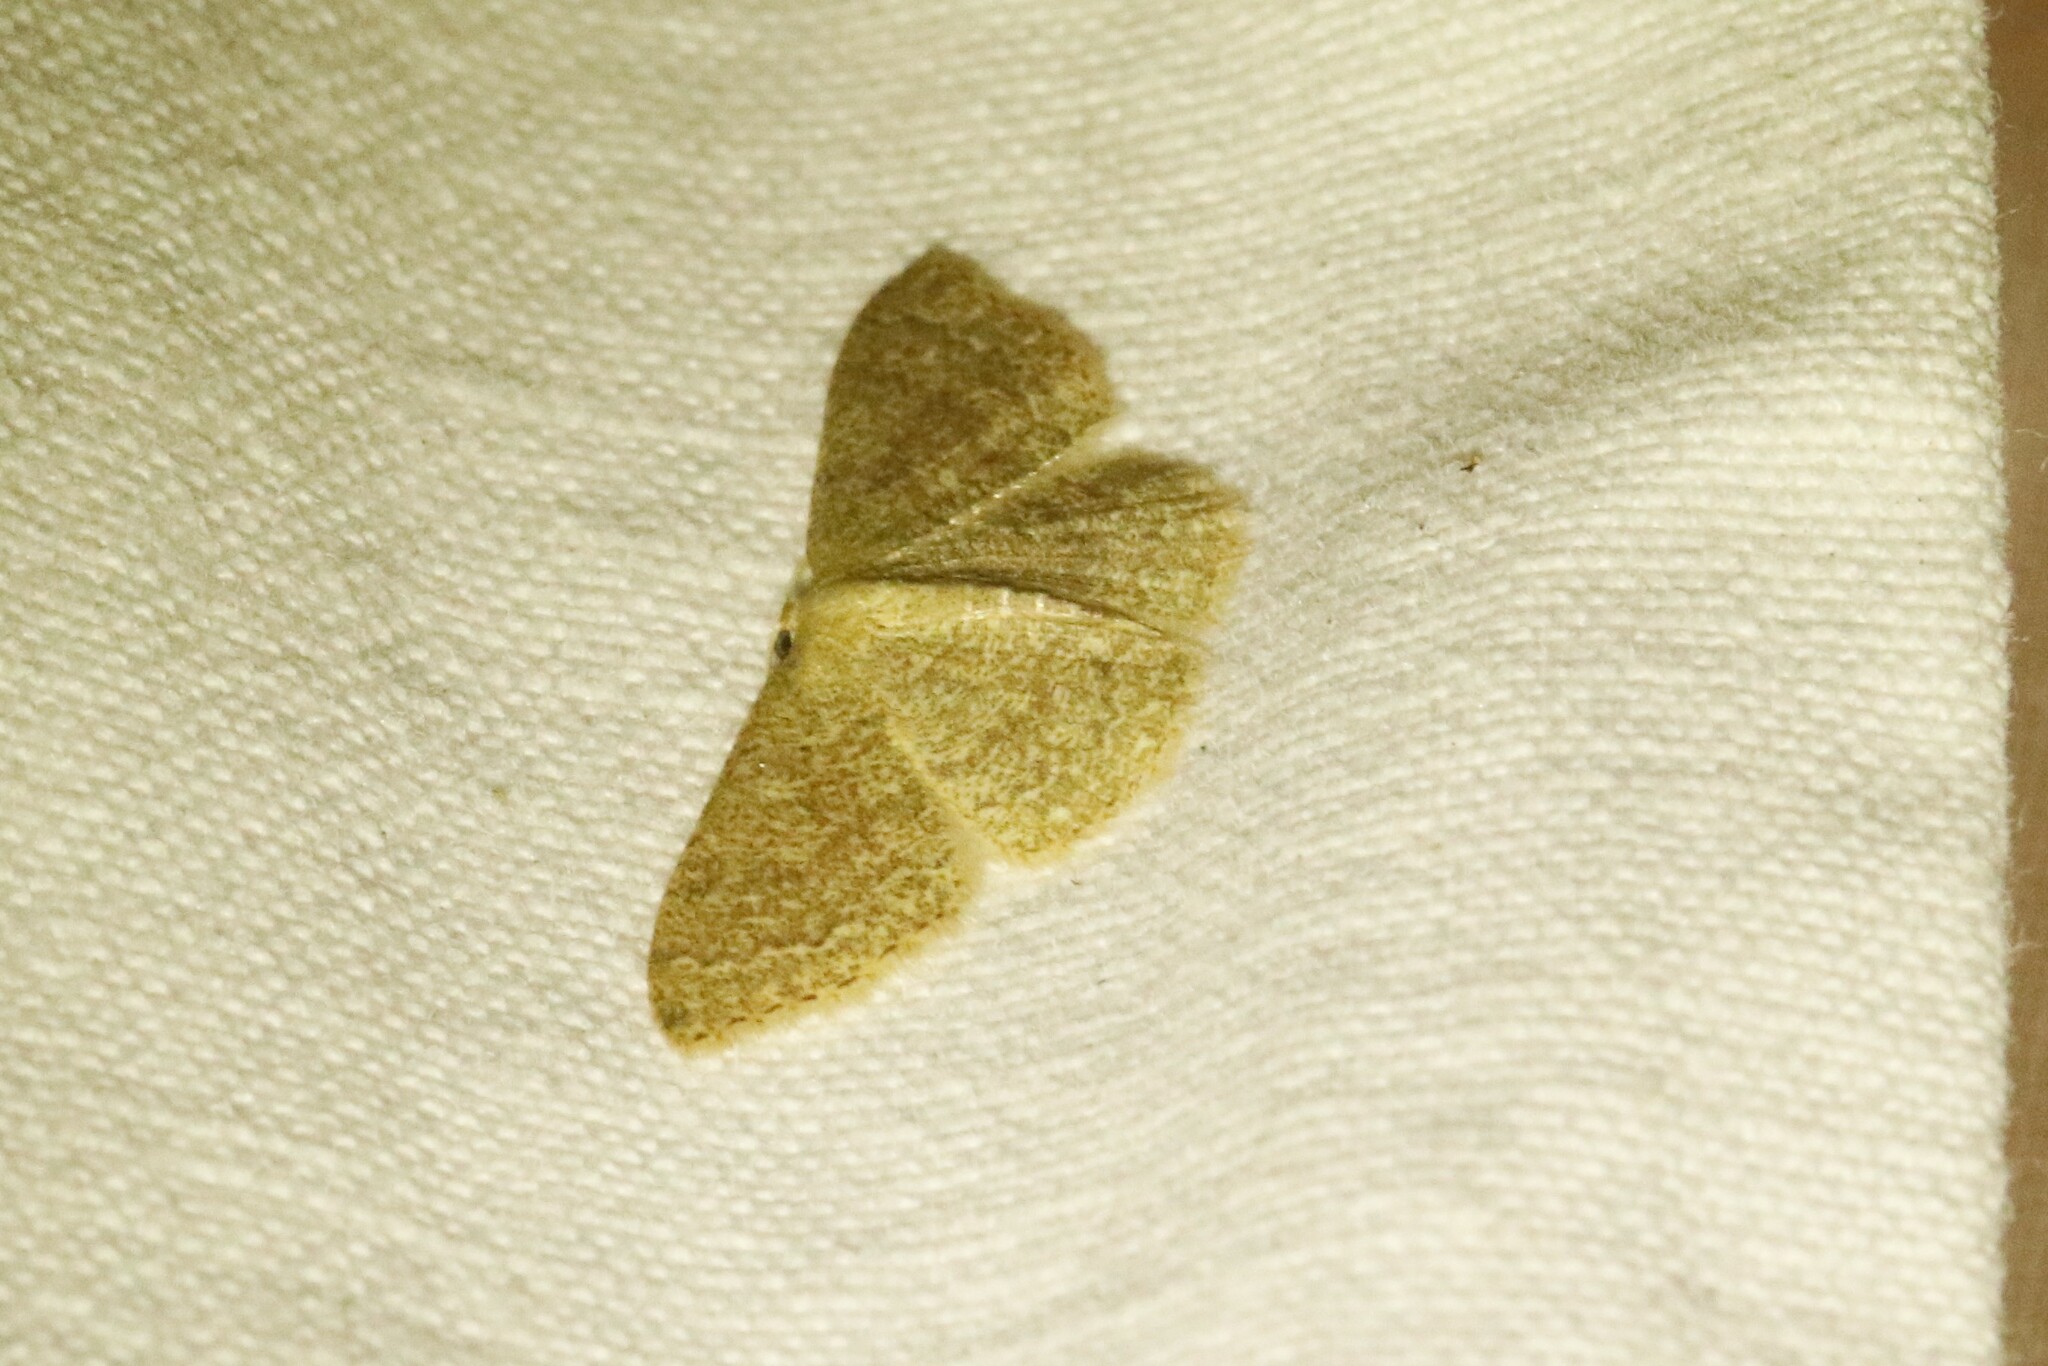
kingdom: Animalia
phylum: Arthropoda
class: Insecta
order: Lepidoptera
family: Geometridae
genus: Pleuroprucha
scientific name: Pleuroprucha insulsaria
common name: Common tan wave
